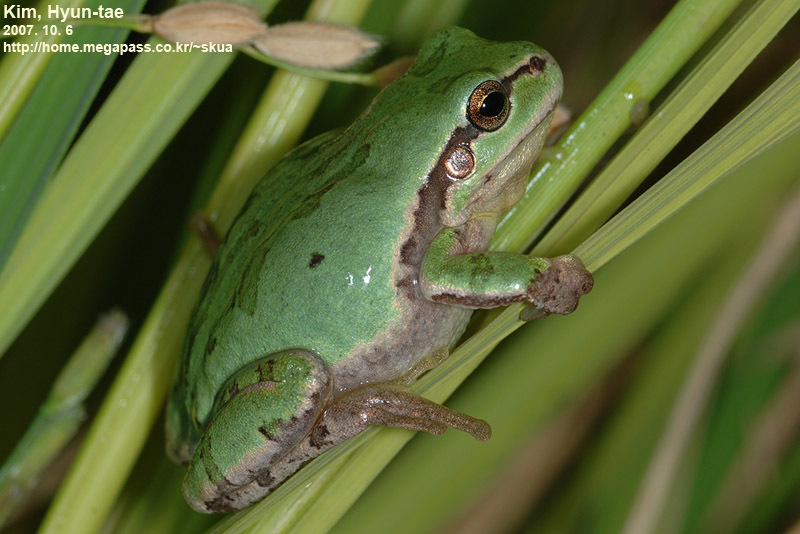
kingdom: Animalia
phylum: Chordata
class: Amphibia
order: Anura
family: Hylidae
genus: Dryophytes
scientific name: Dryophytes immaculatus
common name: North china treefrog
